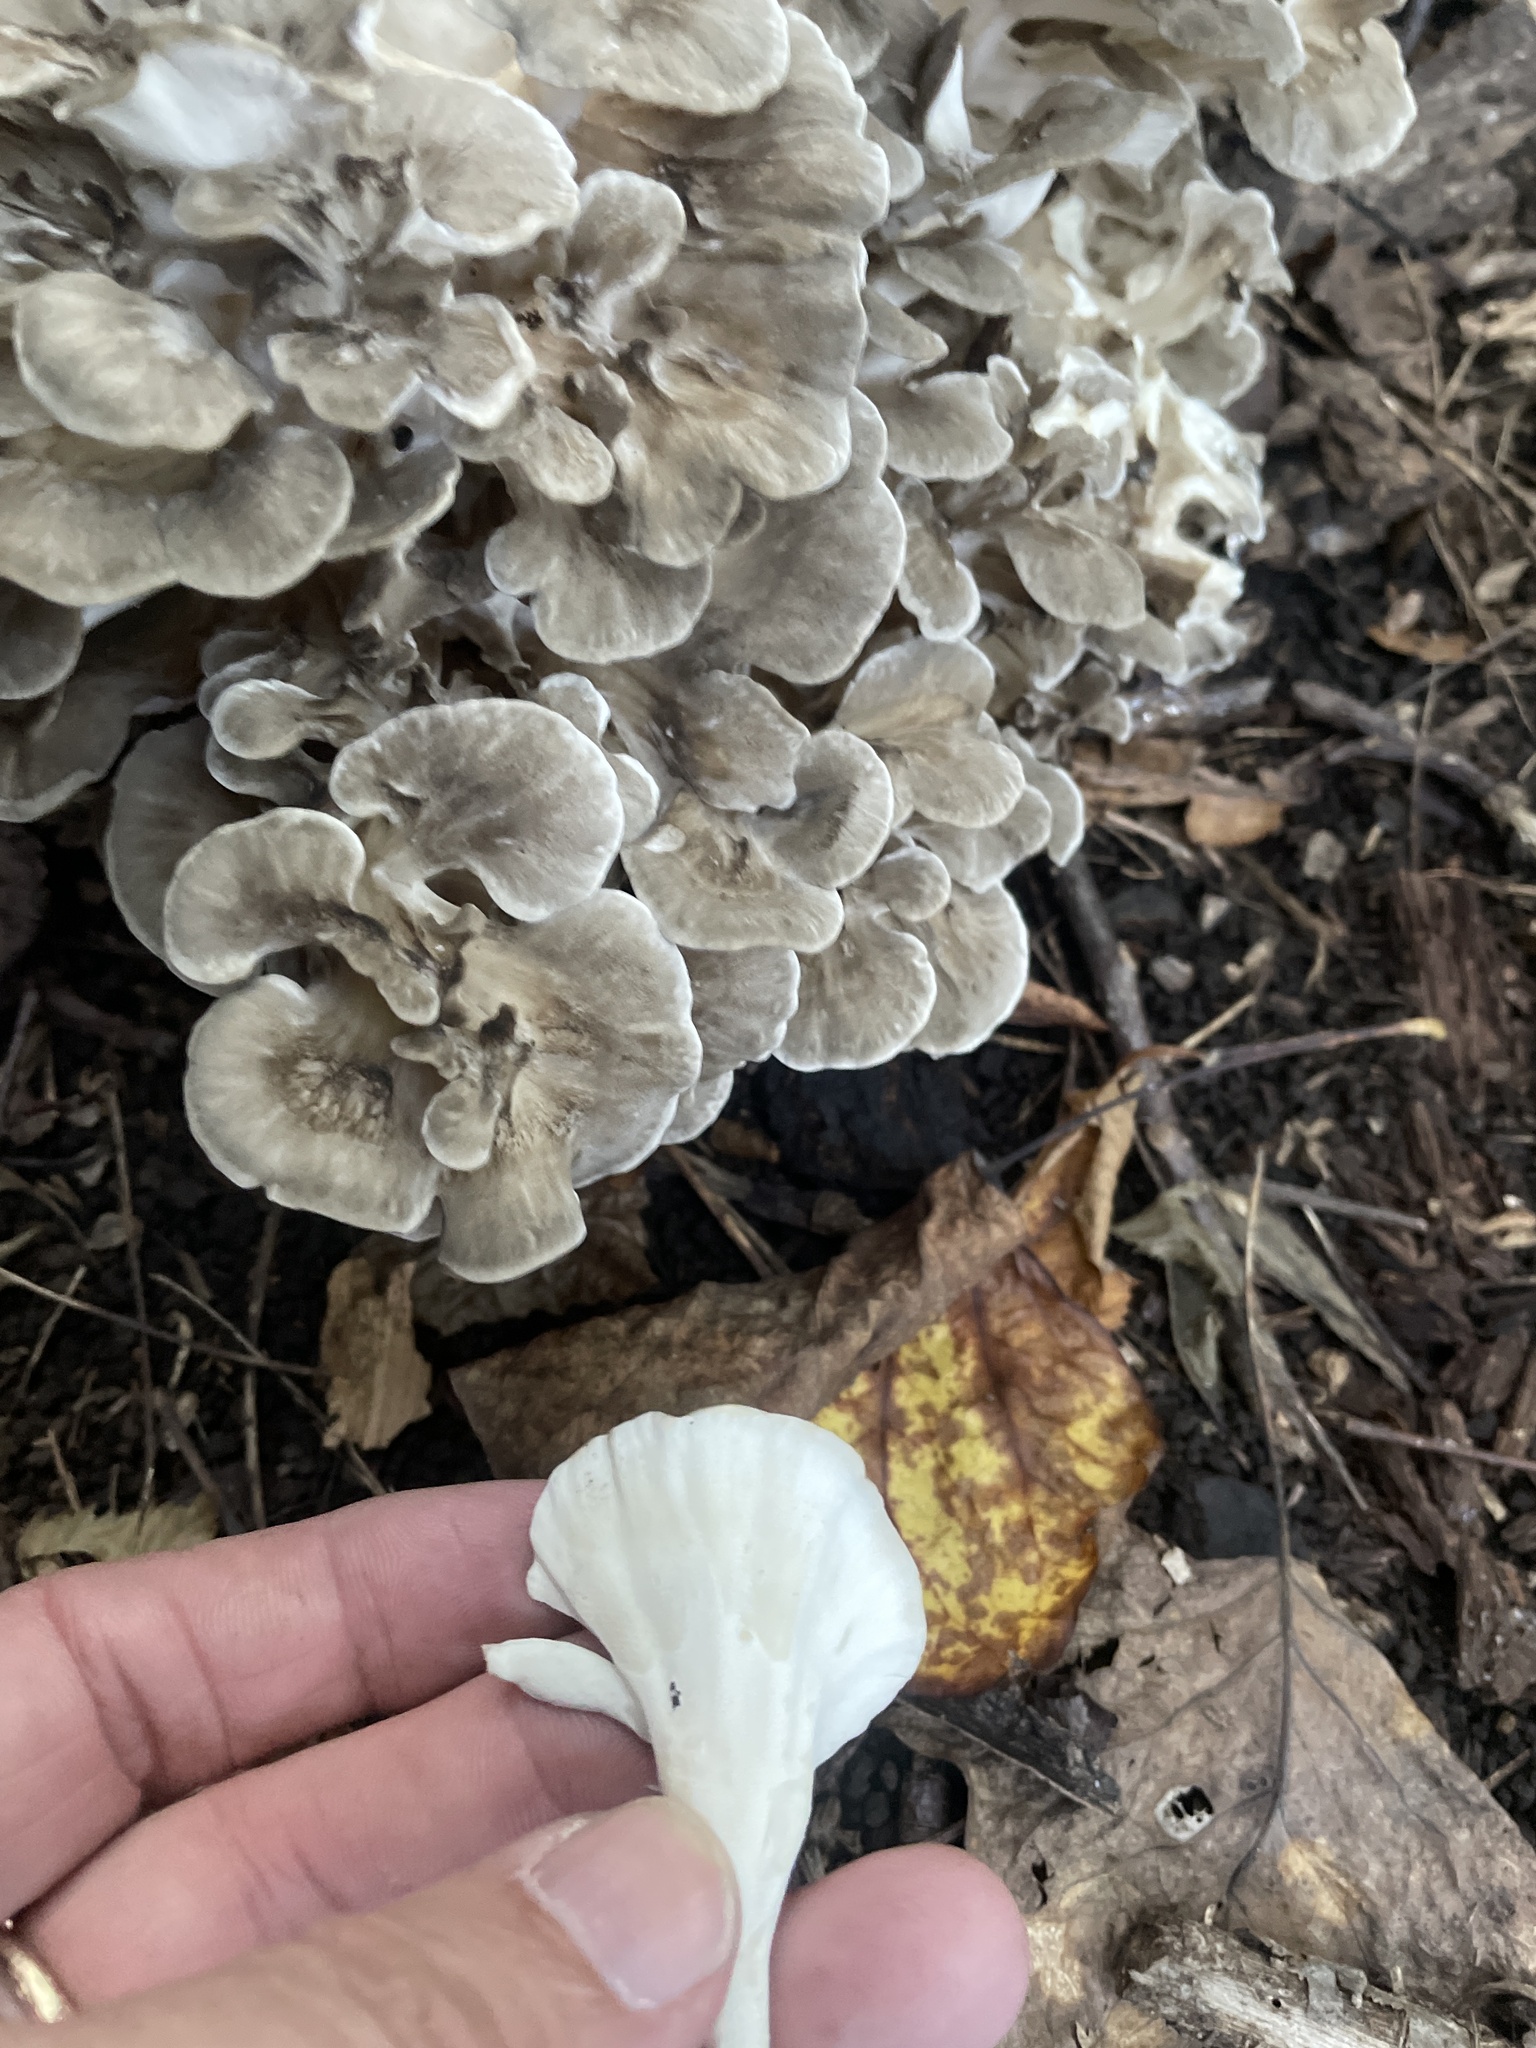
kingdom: Fungi
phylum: Basidiomycota
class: Agaricomycetes
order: Polyporales
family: Grifolaceae
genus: Grifola
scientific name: Grifola frondosa
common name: Hen of the woods
